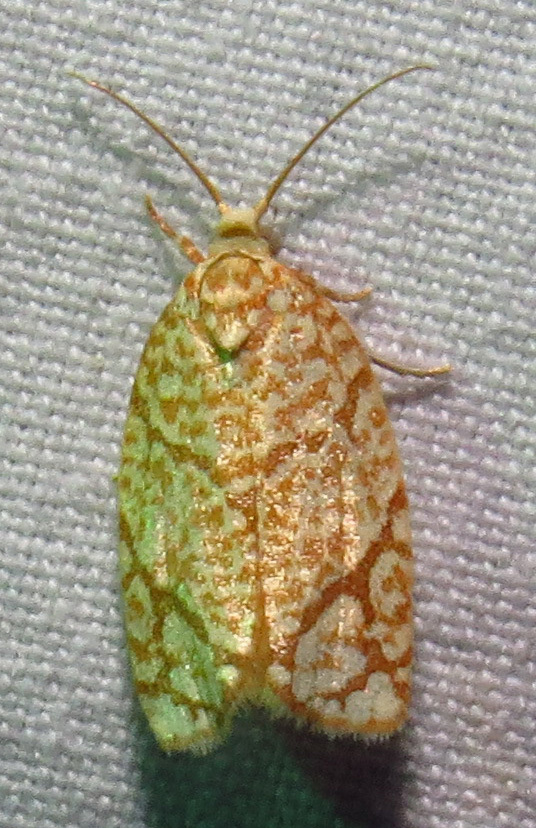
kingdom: Animalia
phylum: Arthropoda
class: Insecta
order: Lepidoptera
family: Tortricidae
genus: Argyrotaenia
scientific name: Argyrotaenia quercifoliana
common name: Yellow-winged oak leafroller moth
